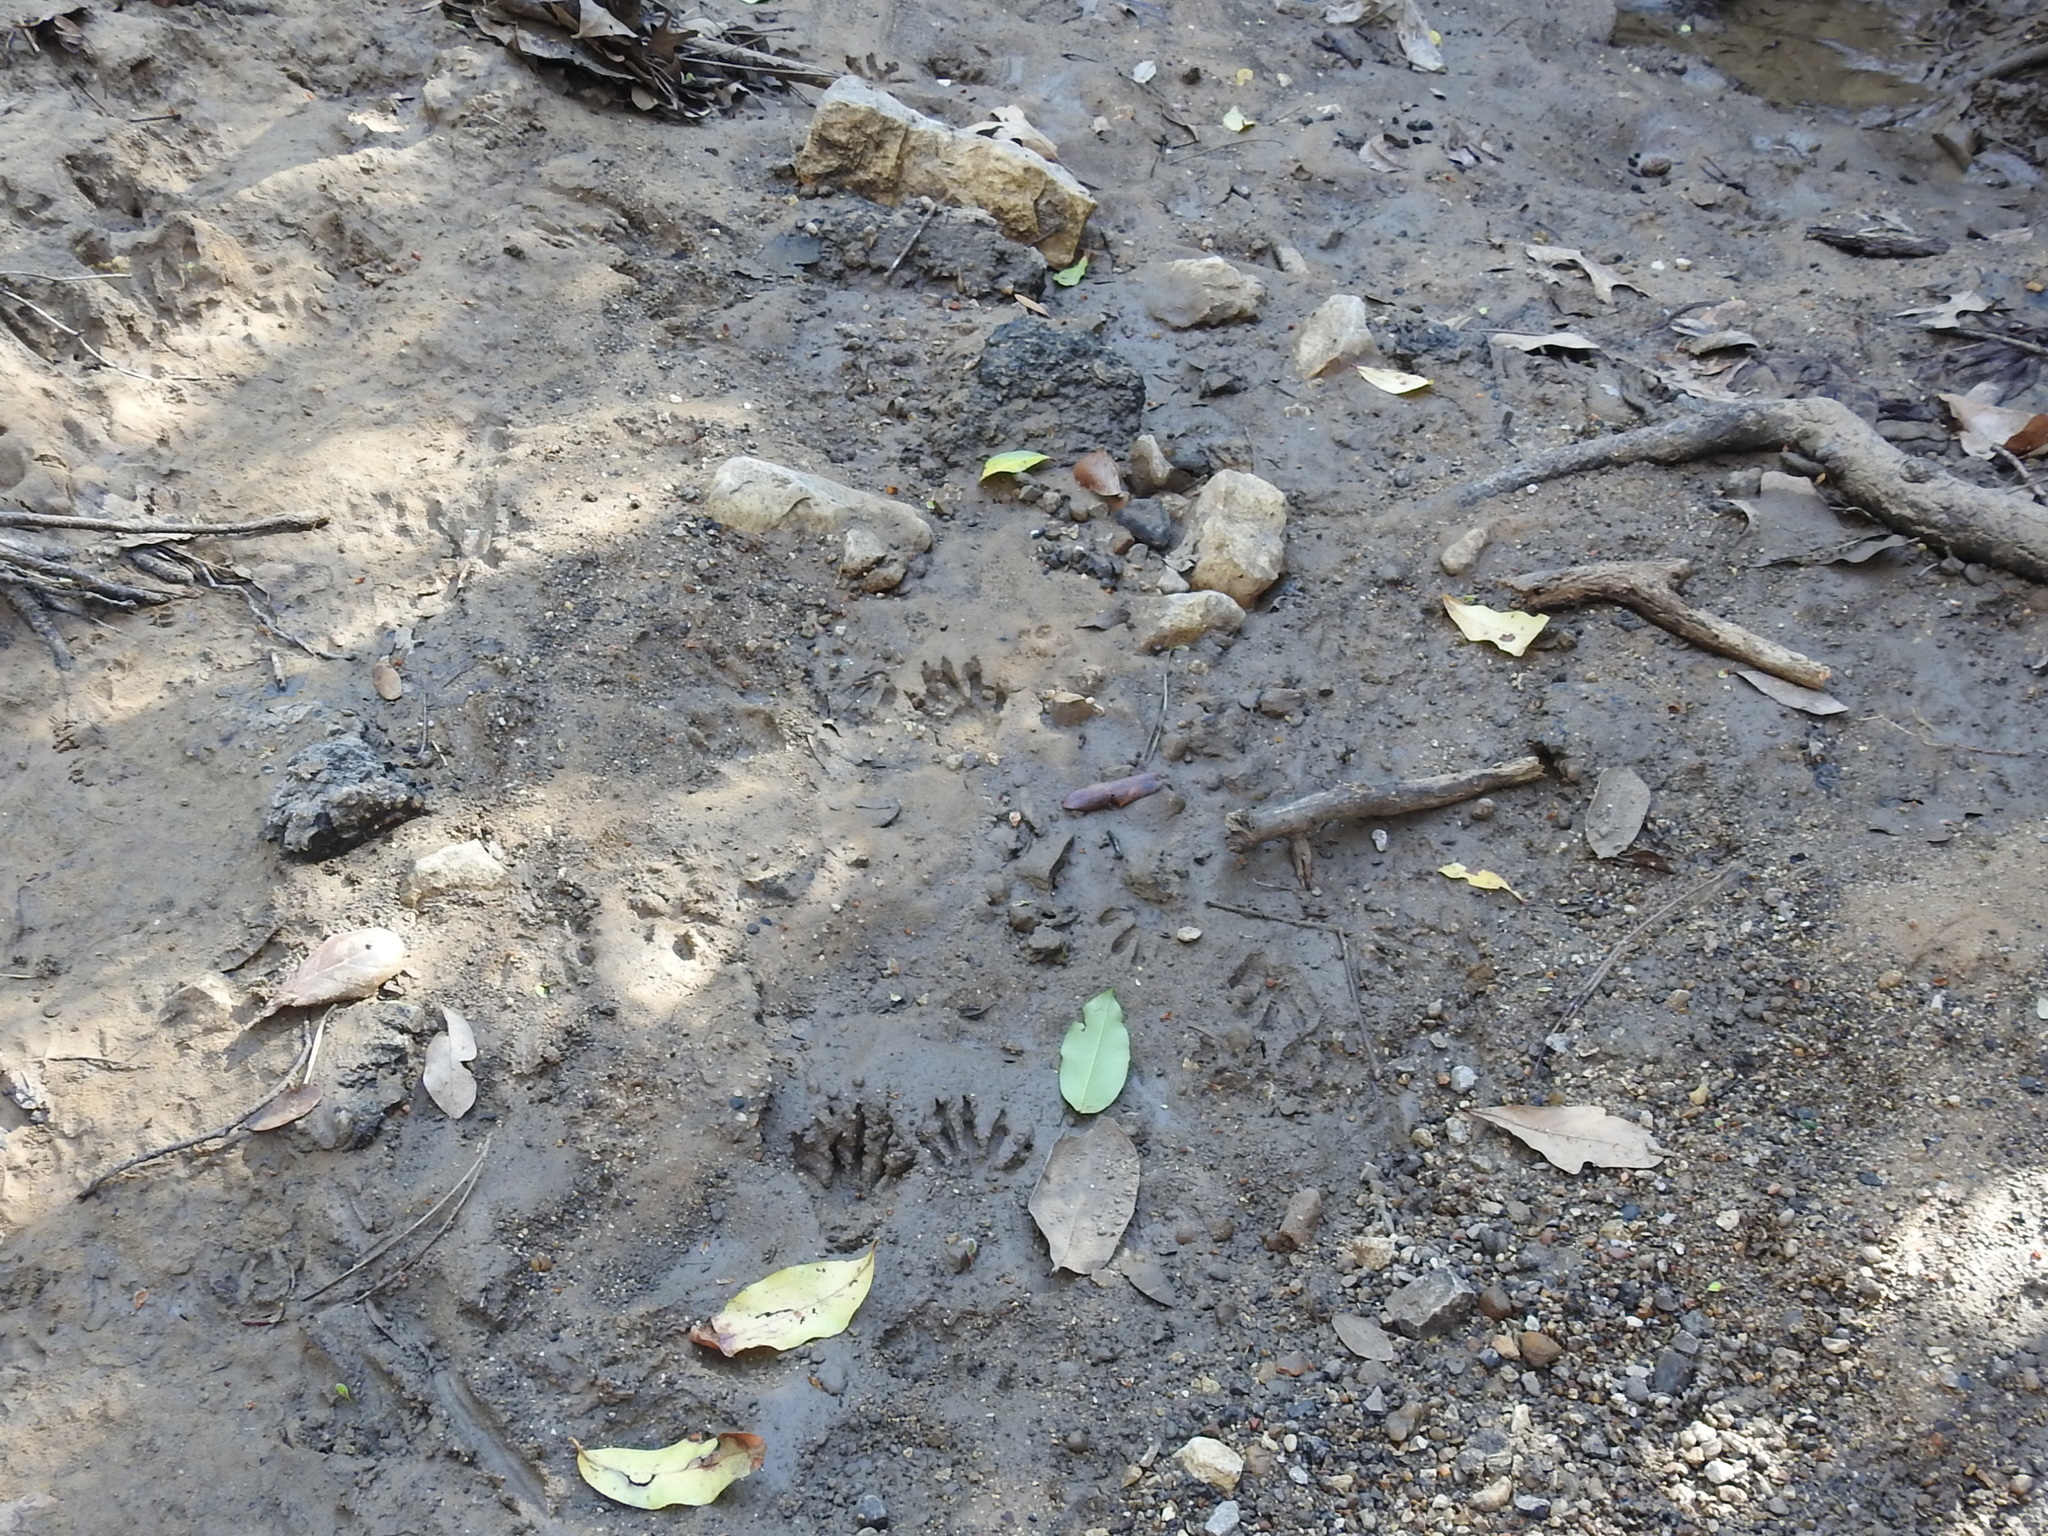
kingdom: Animalia
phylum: Chordata
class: Mammalia
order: Carnivora
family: Procyonidae
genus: Procyon
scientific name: Procyon lotor
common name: Raccoon
